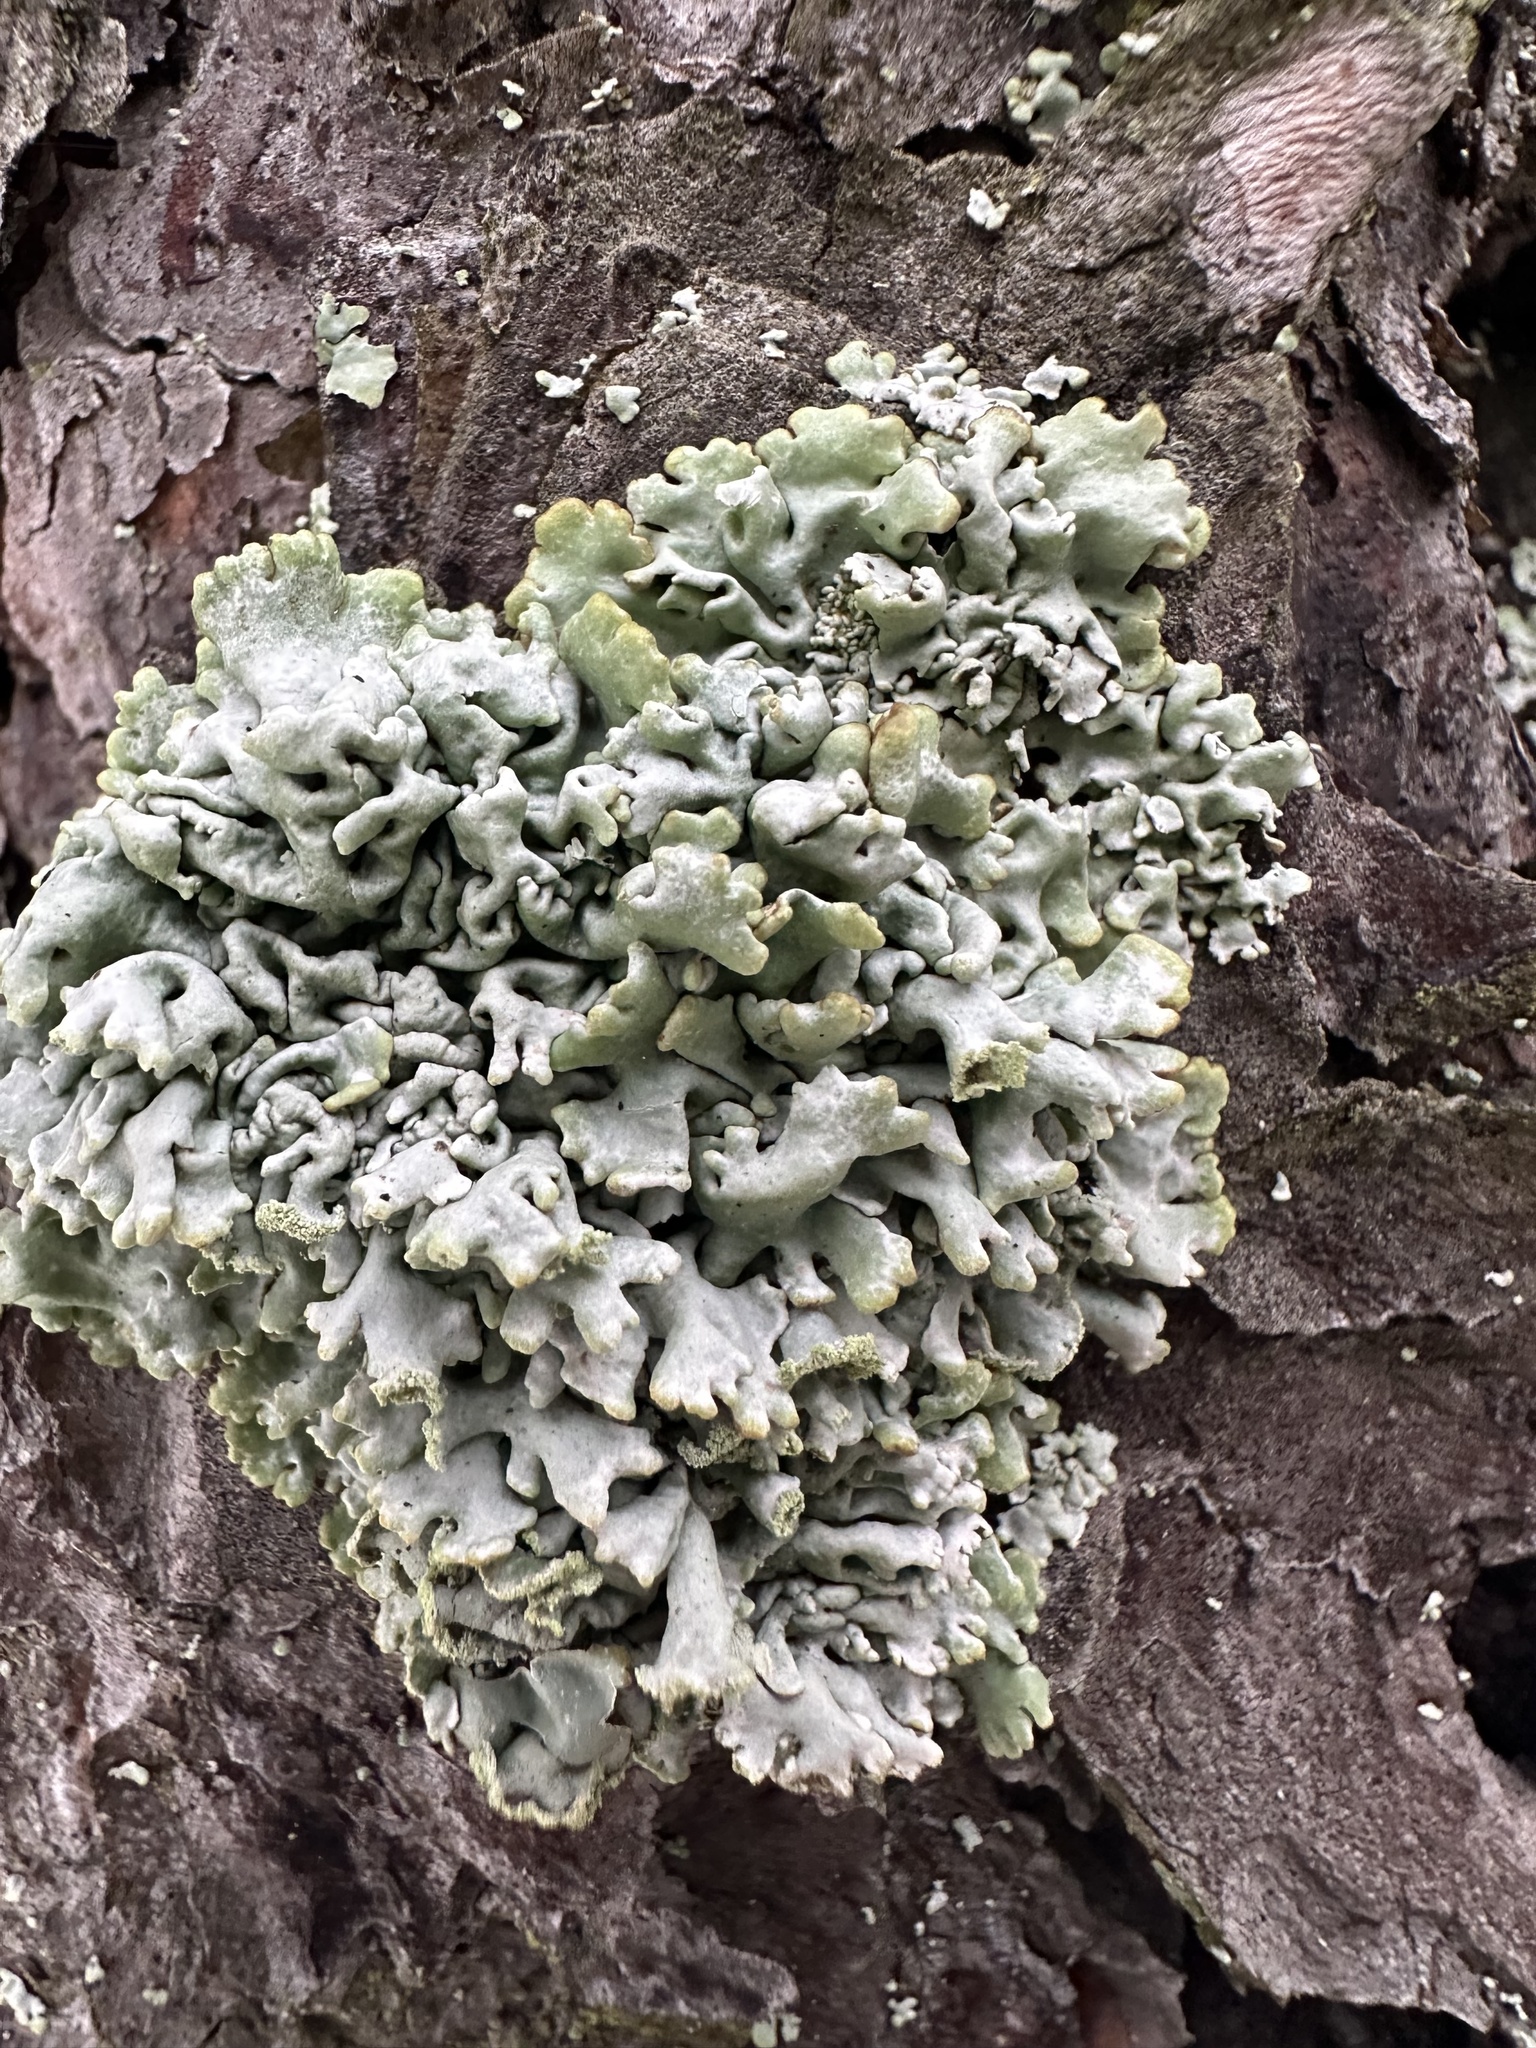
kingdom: Fungi
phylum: Ascomycota
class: Lecanoromycetes
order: Lecanorales
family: Parmeliaceae
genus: Hypogymnia
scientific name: Hypogymnia physodes
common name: Dark crottle
